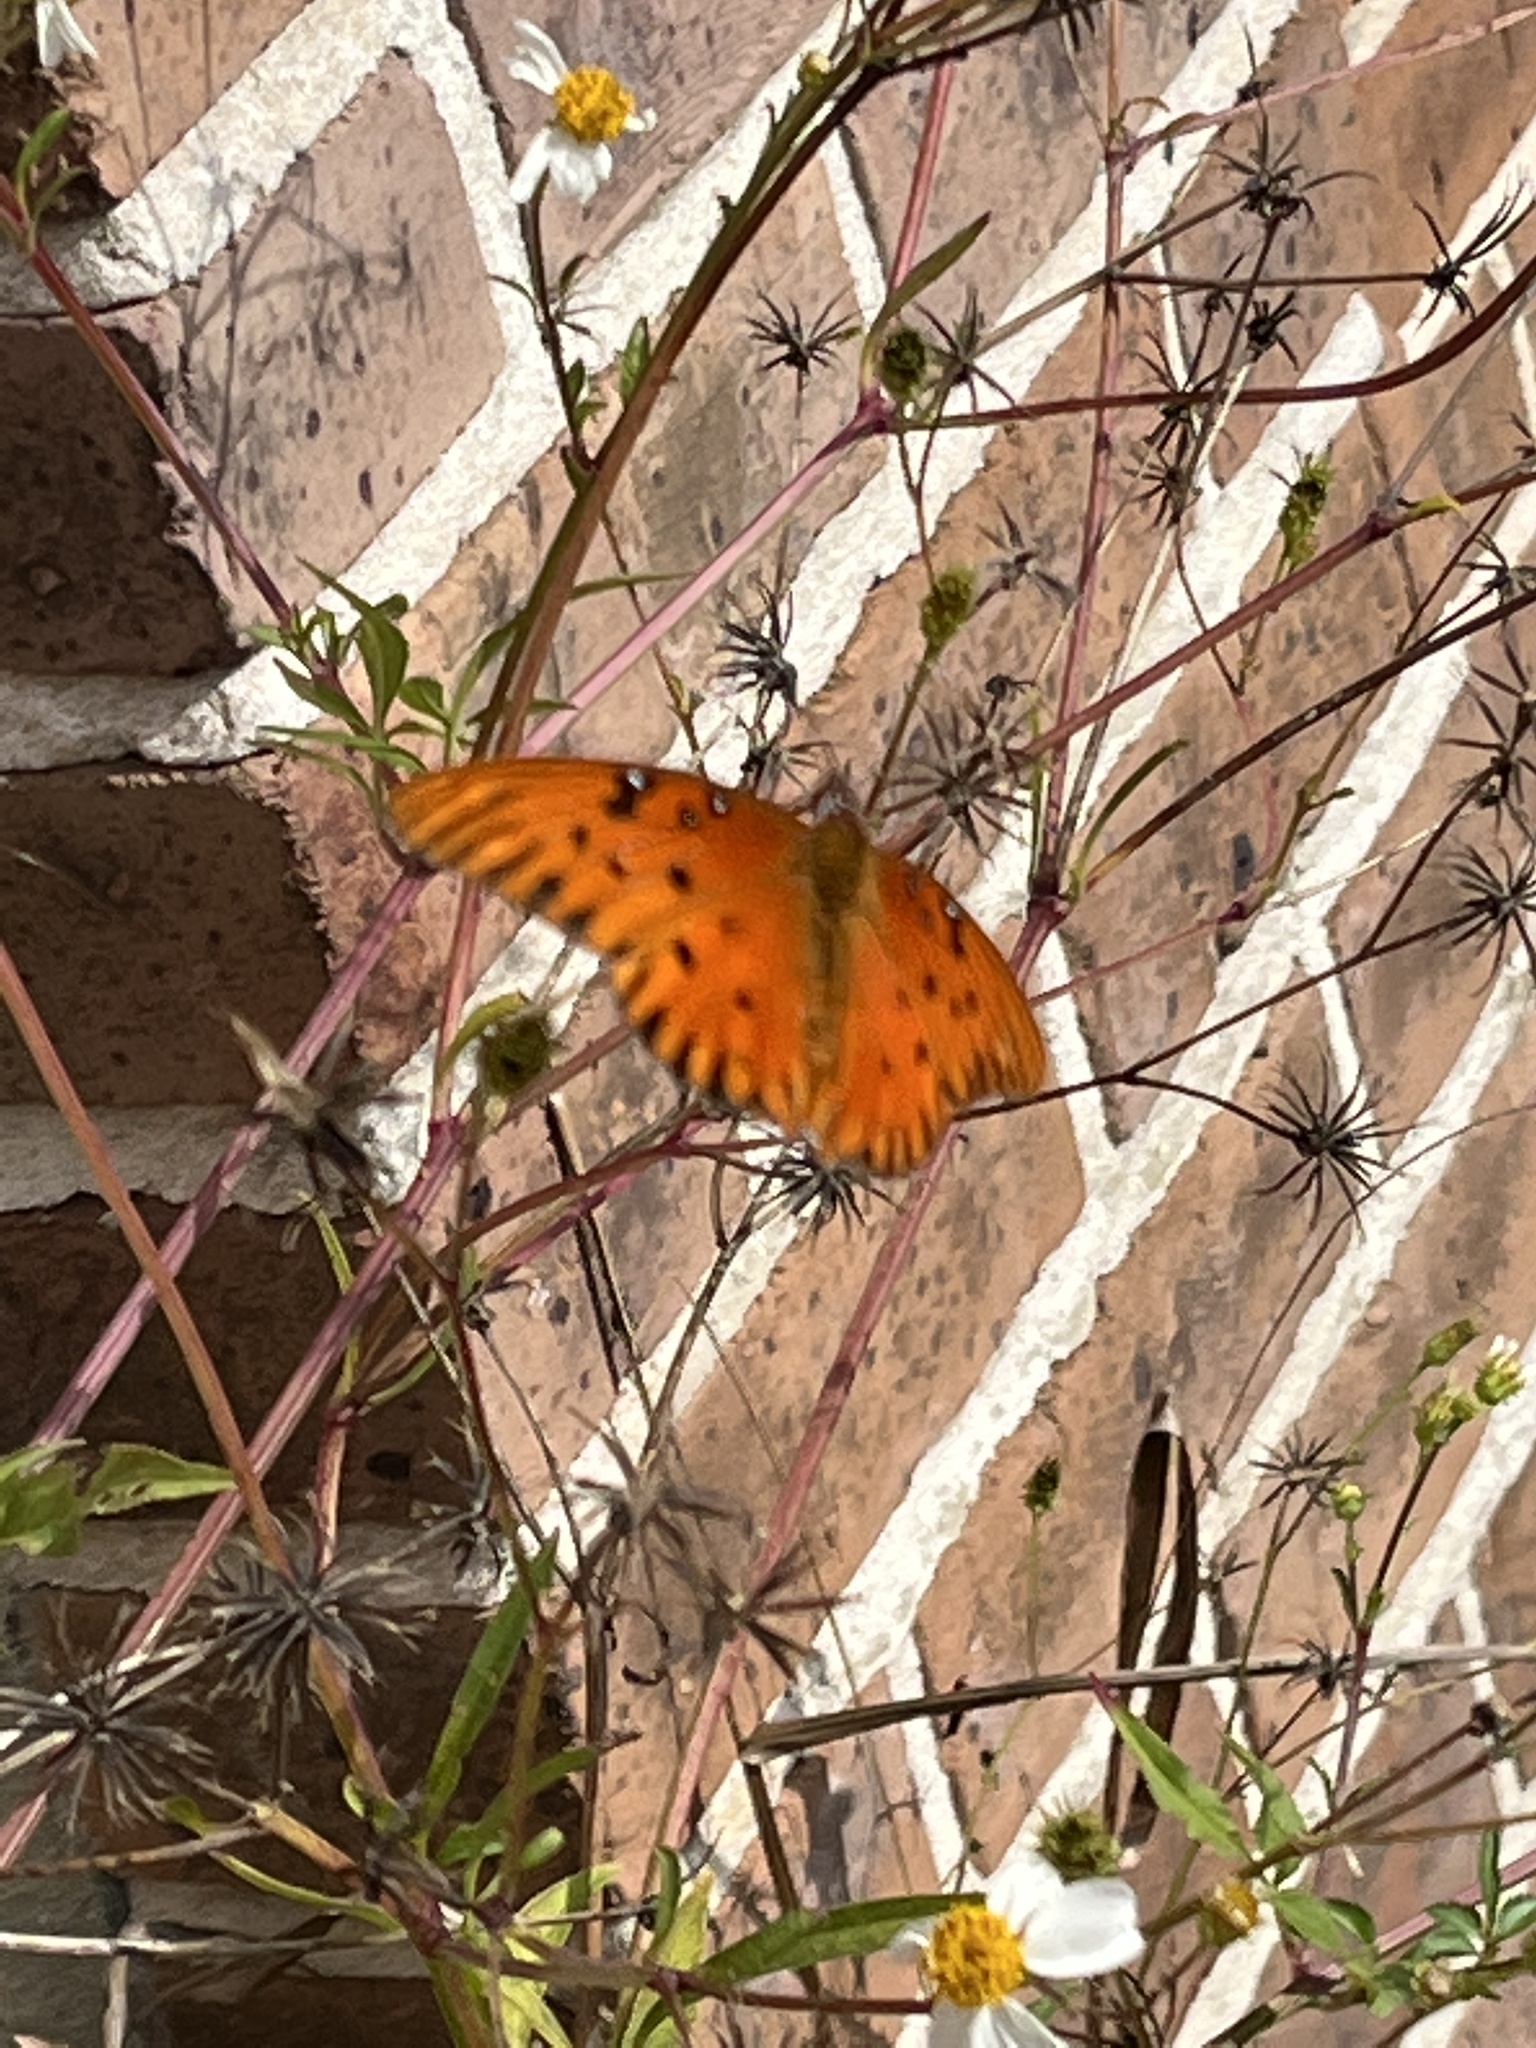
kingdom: Animalia
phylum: Arthropoda
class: Insecta
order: Lepidoptera
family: Nymphalidae
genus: Dione
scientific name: Dione vanillae
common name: Gulf fritillary
